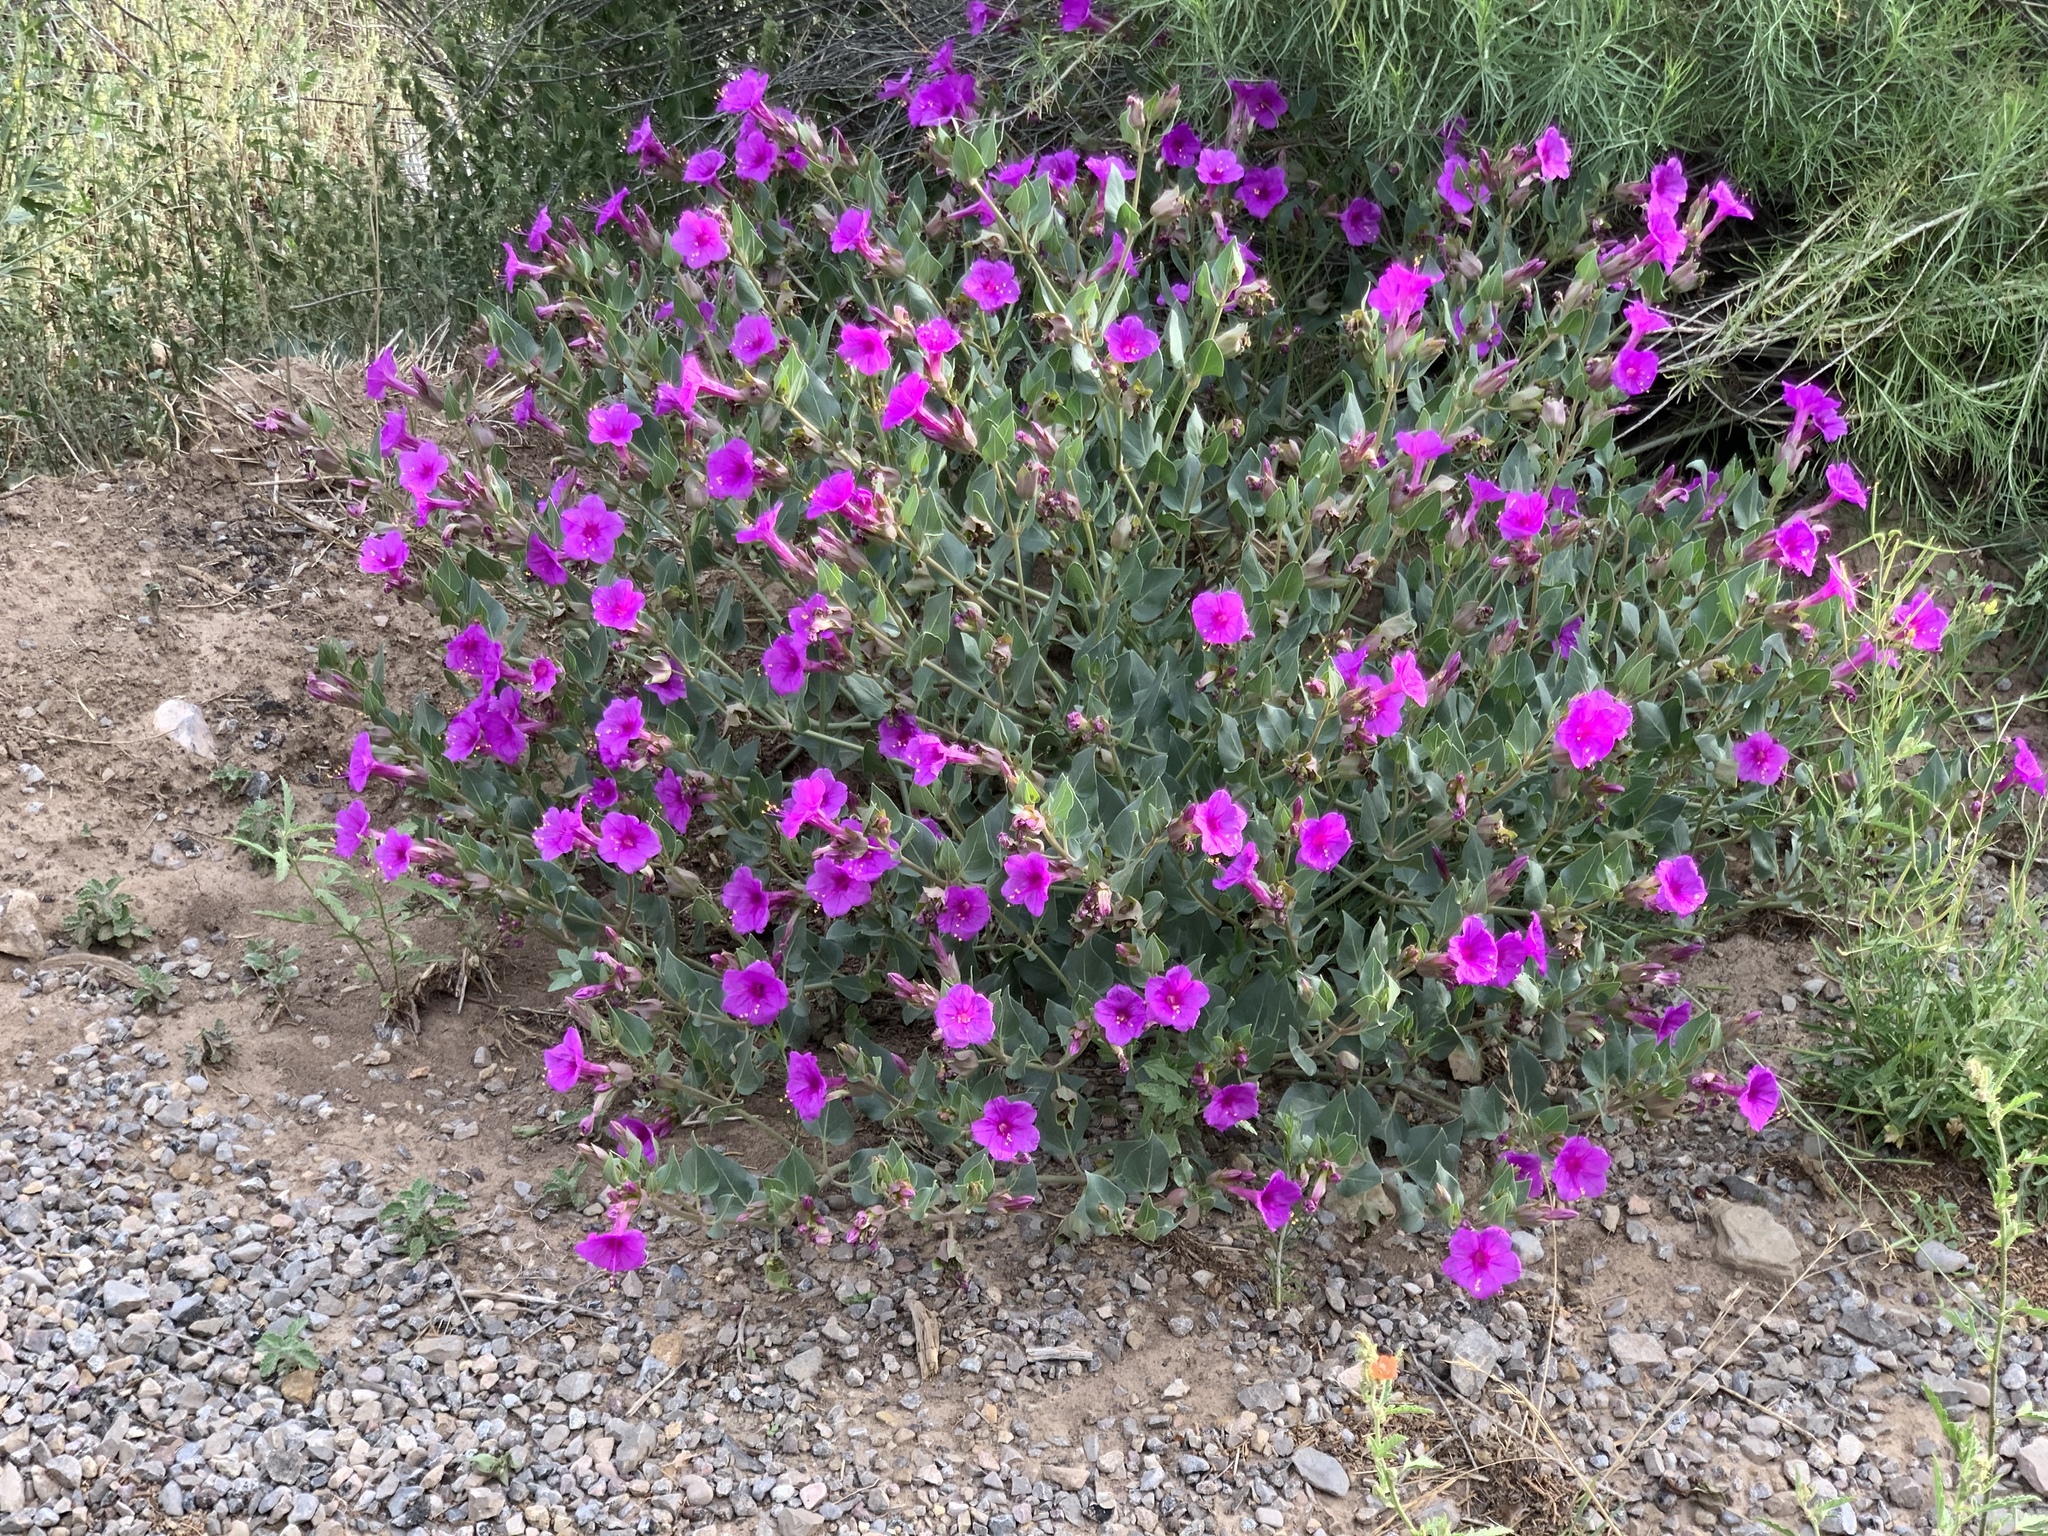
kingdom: Plantae
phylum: Tracheophyta
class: Magnoliopsida
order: Caryophyllales
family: Nyctaginaceae
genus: Mirabilis
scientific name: Mirabilis multiflora
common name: Froebel's four-o'clock
